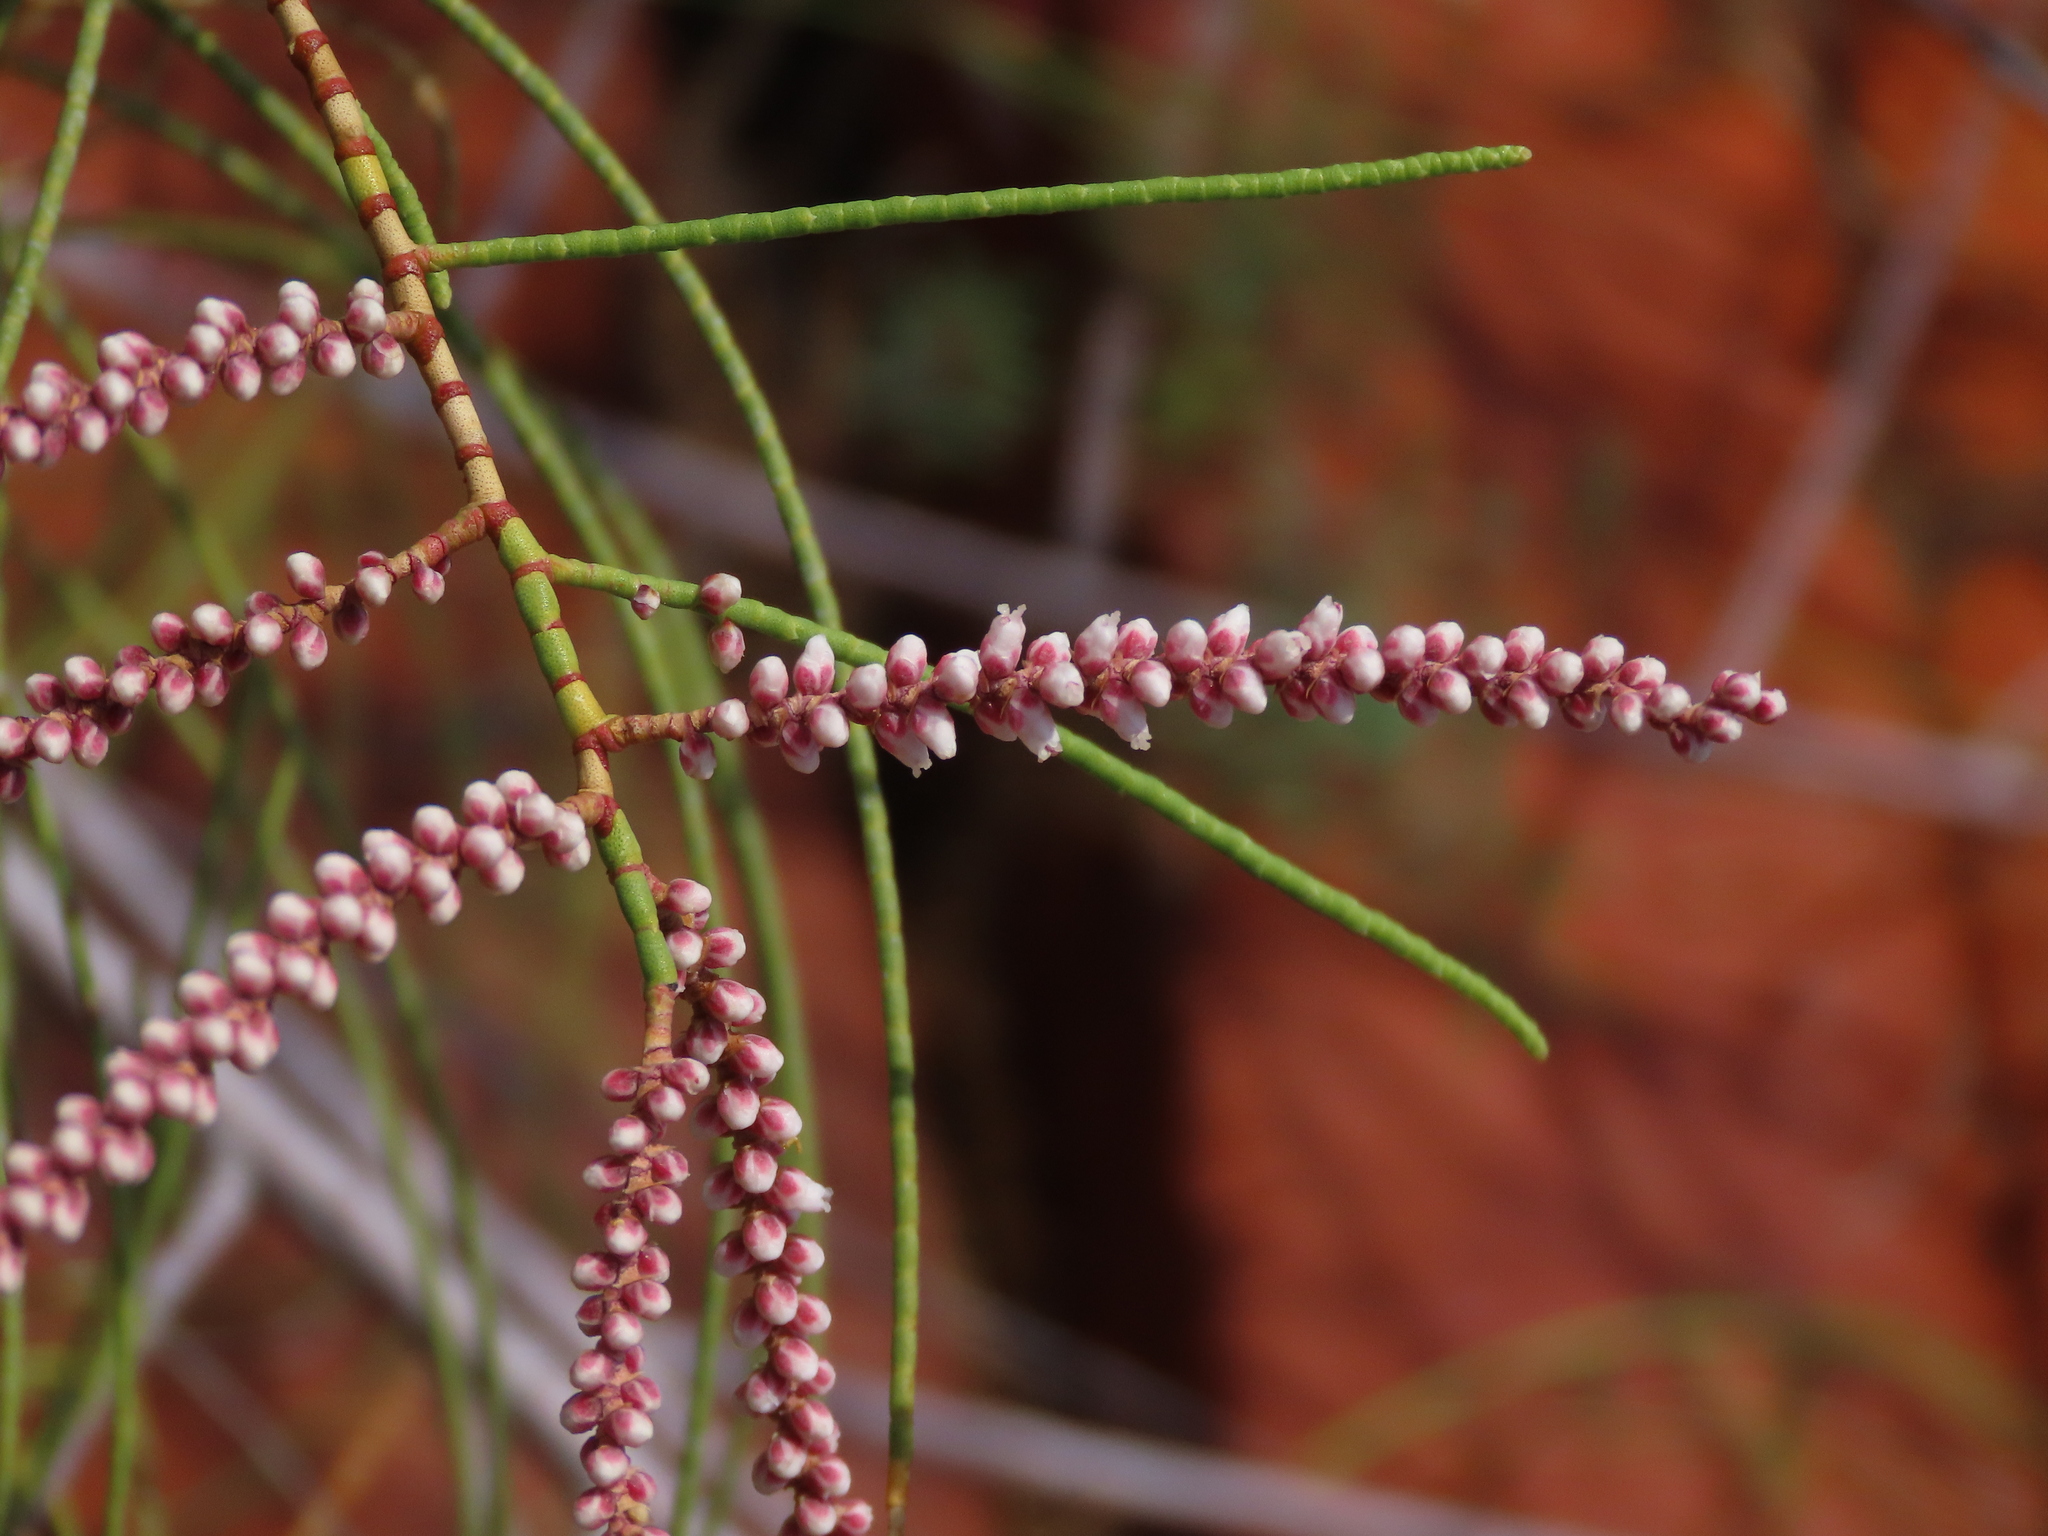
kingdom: Plantae
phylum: Tracheophyta
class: Magnoliopsida
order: Caryophyllales
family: Tamaricaceae
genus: Tamarix
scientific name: Tamarix aphylla
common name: Athel tamarisk
